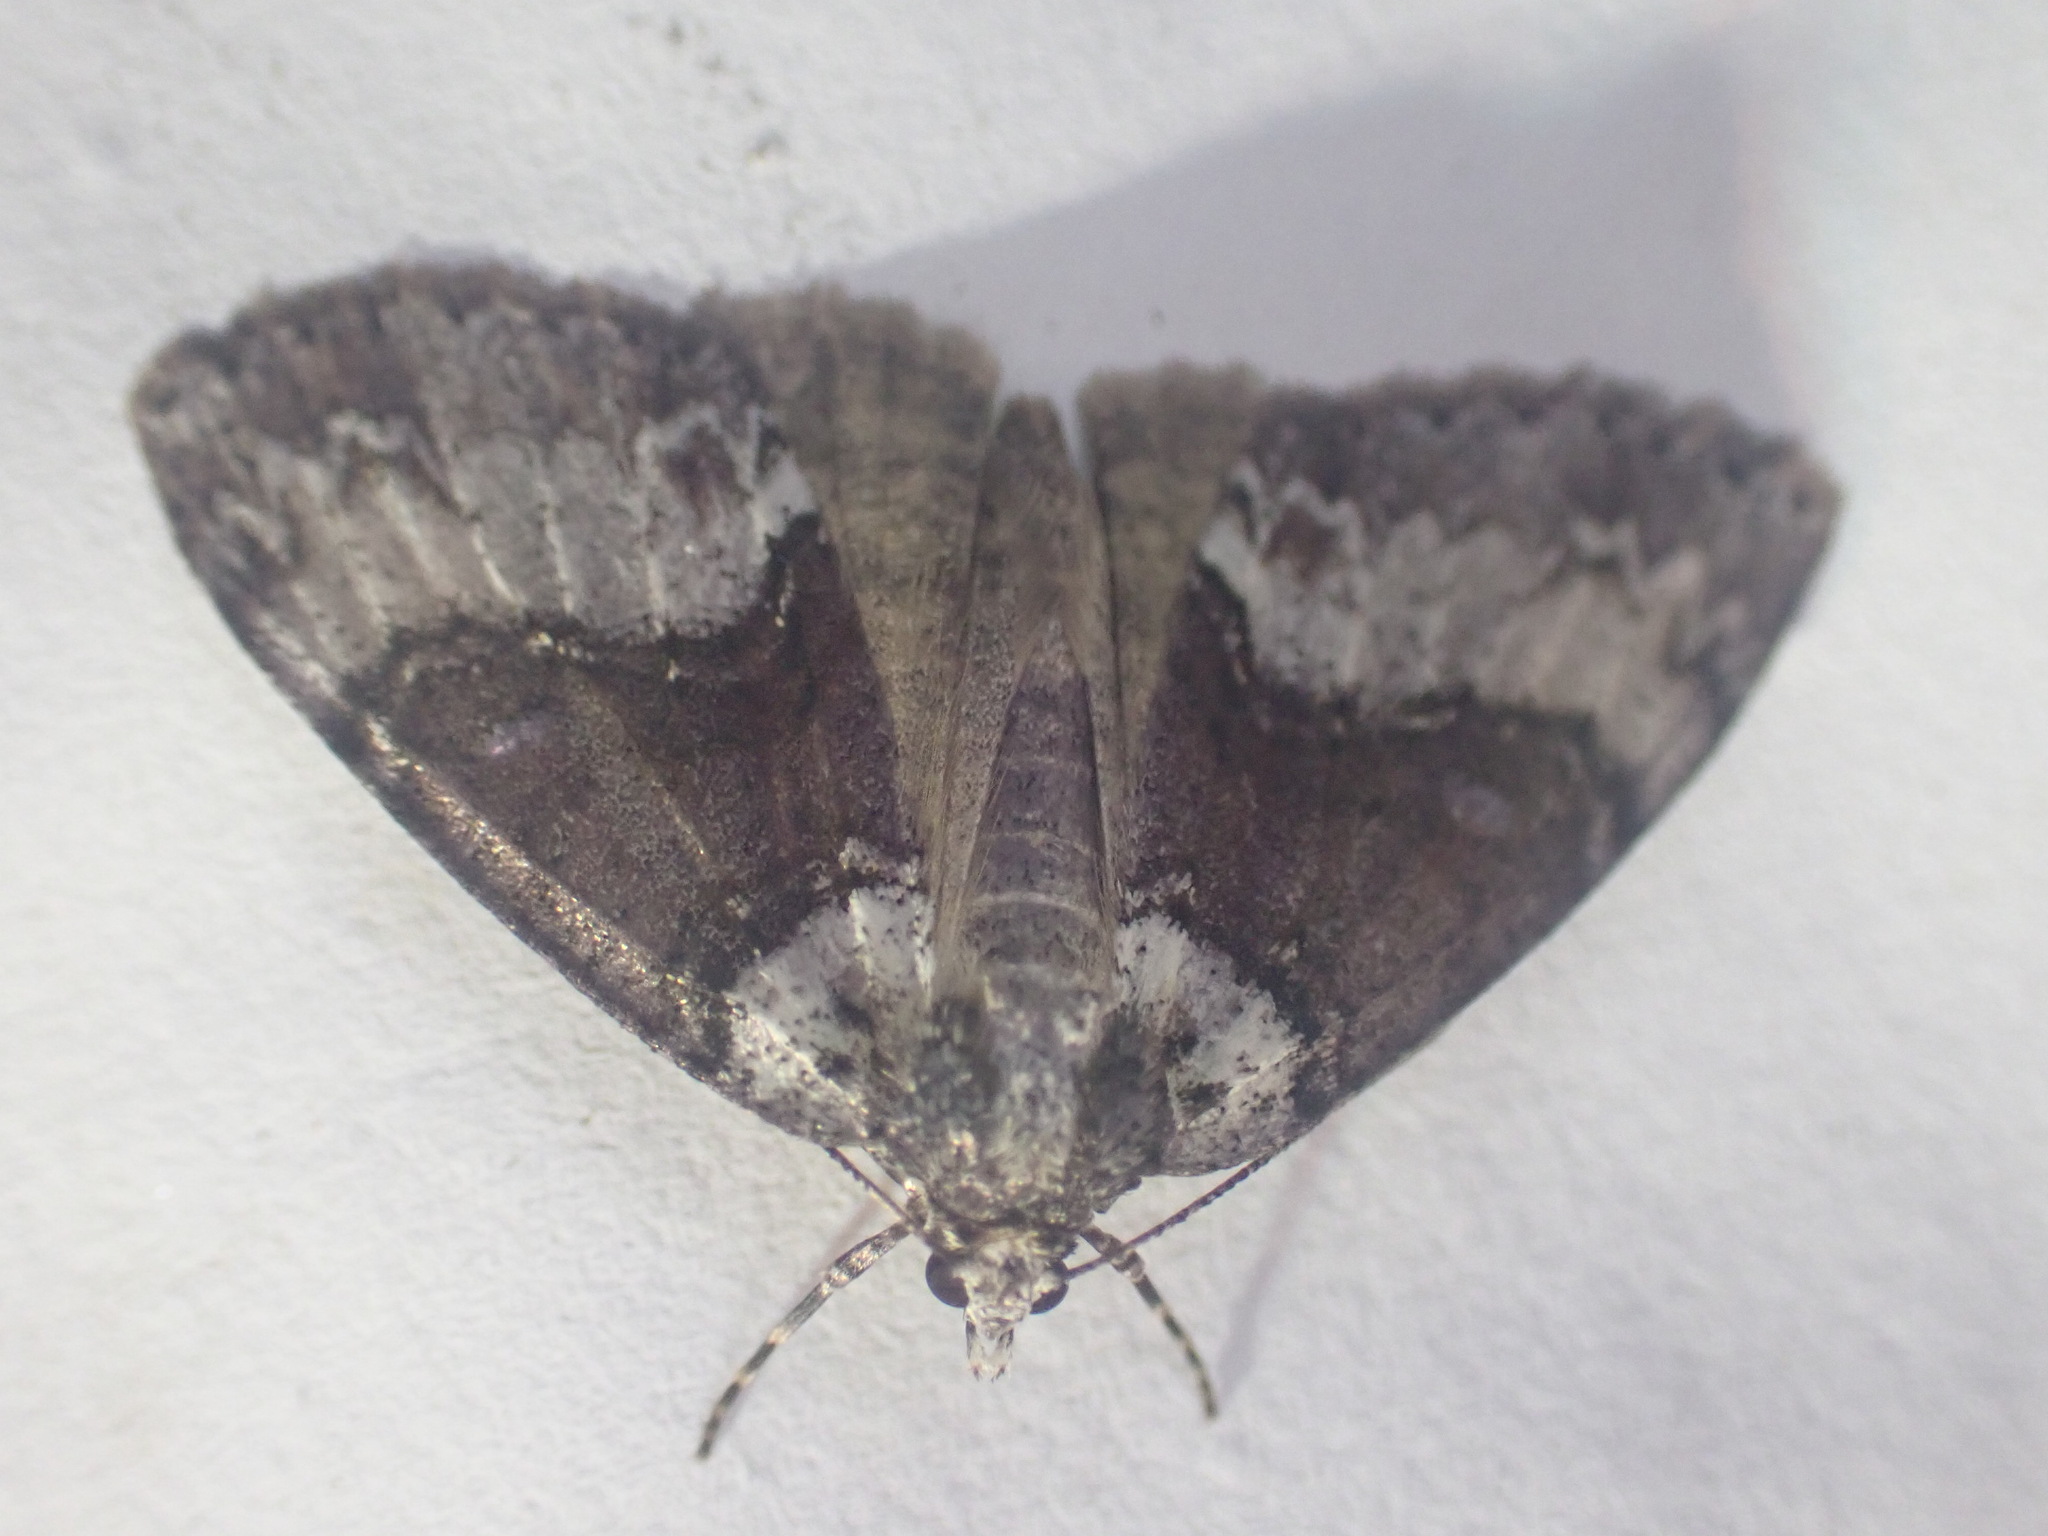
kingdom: Animalia
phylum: Arthropoda
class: Insecta
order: Lepidoptera
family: Geometridae
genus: Pseudocoremia
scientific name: Pseudocoremia suavis
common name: Common forest looper
